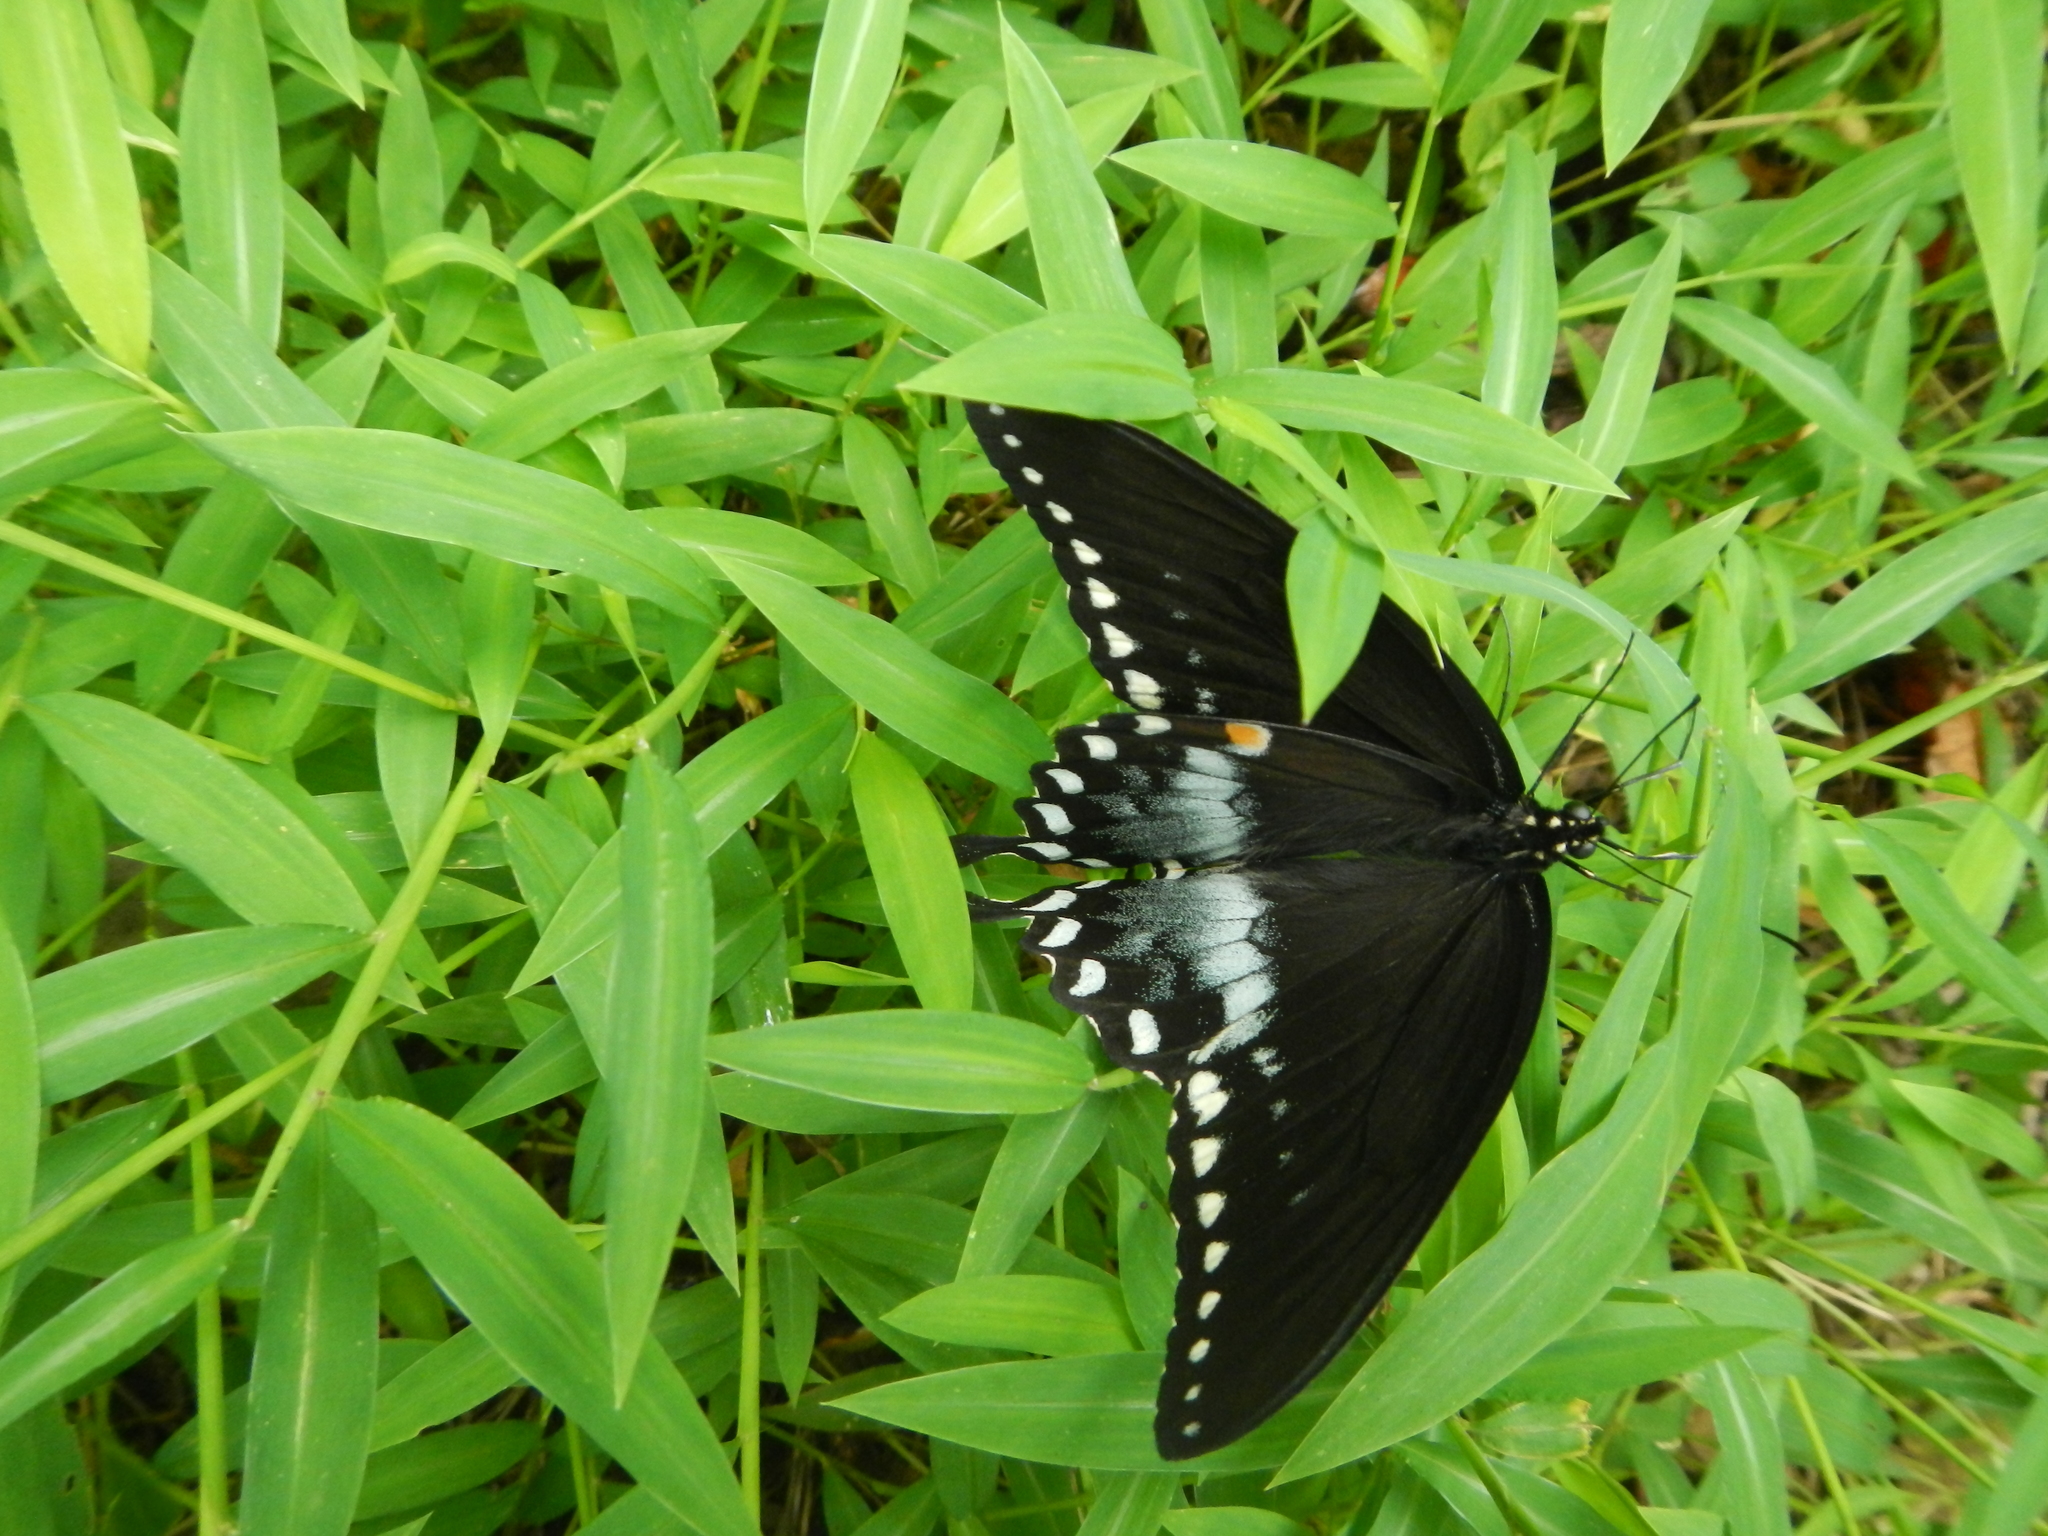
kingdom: Animalia
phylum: Arthropoda
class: Insecta
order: Lepidoptera
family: Papilionidae
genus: Papilio
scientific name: Papilio troilus
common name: Spicebush swallowtail
